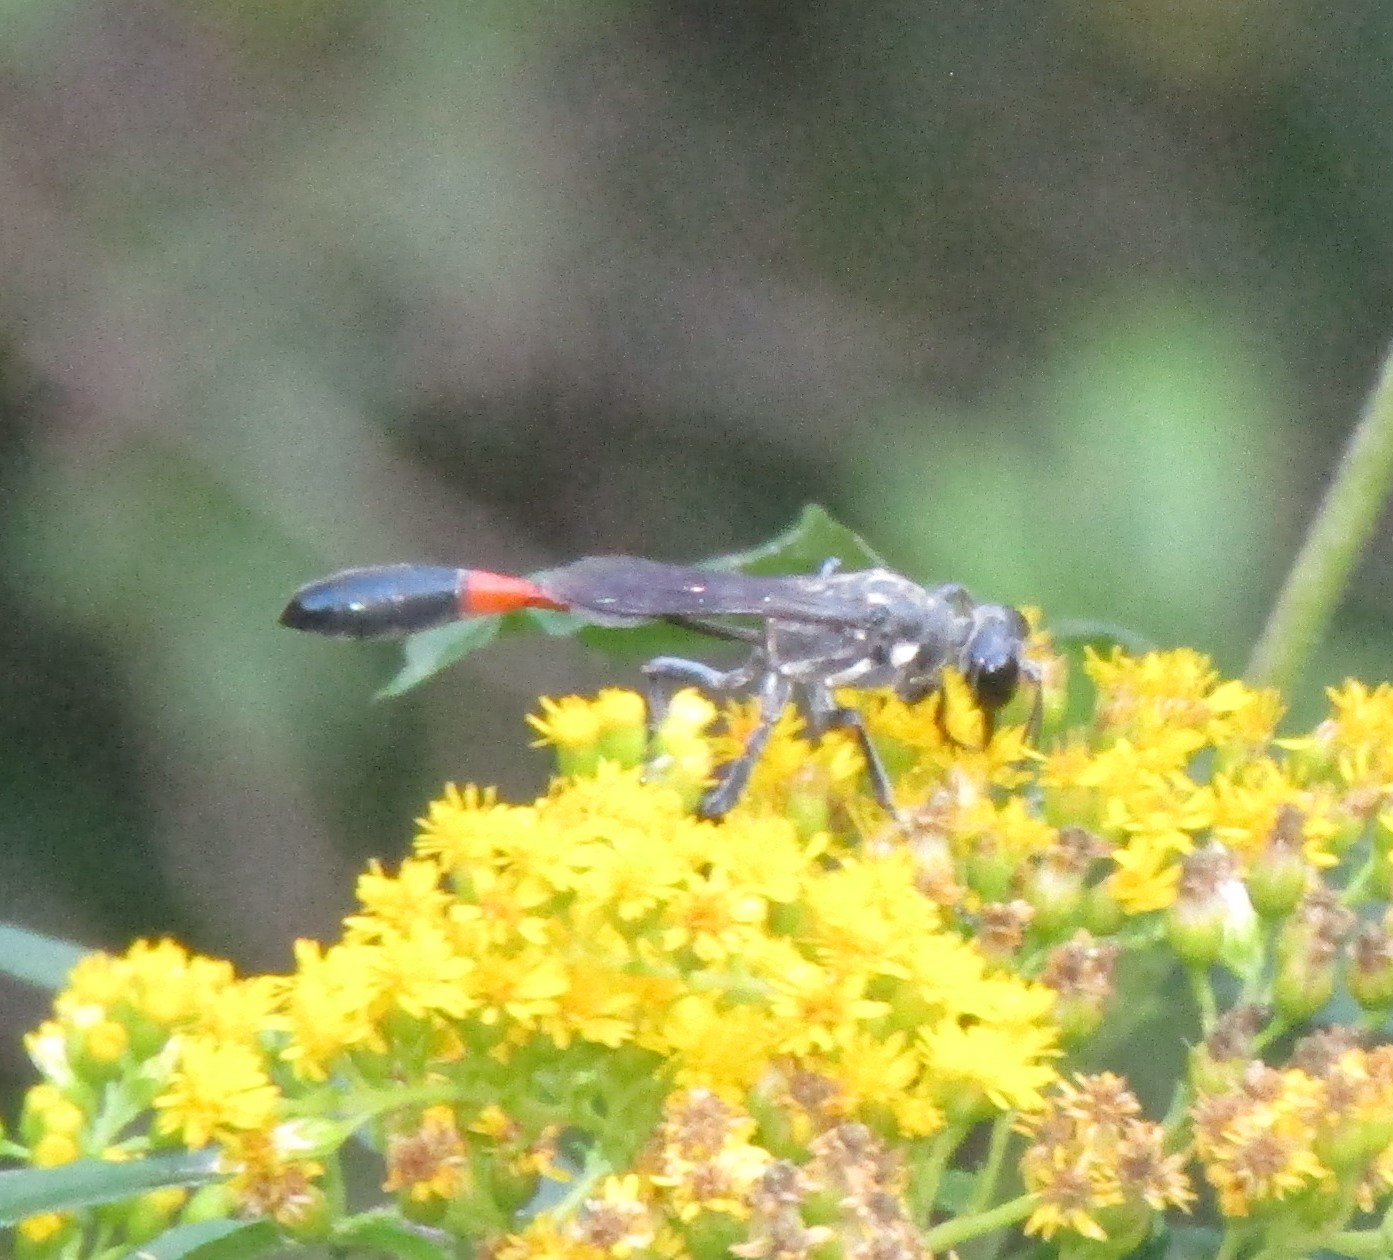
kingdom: Animalia
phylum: Arthropoda
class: Insecta
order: Hymenoptera
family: Sphecidae
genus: Ammophila
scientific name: Ammophila procera
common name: Common thread-waisted wasp
